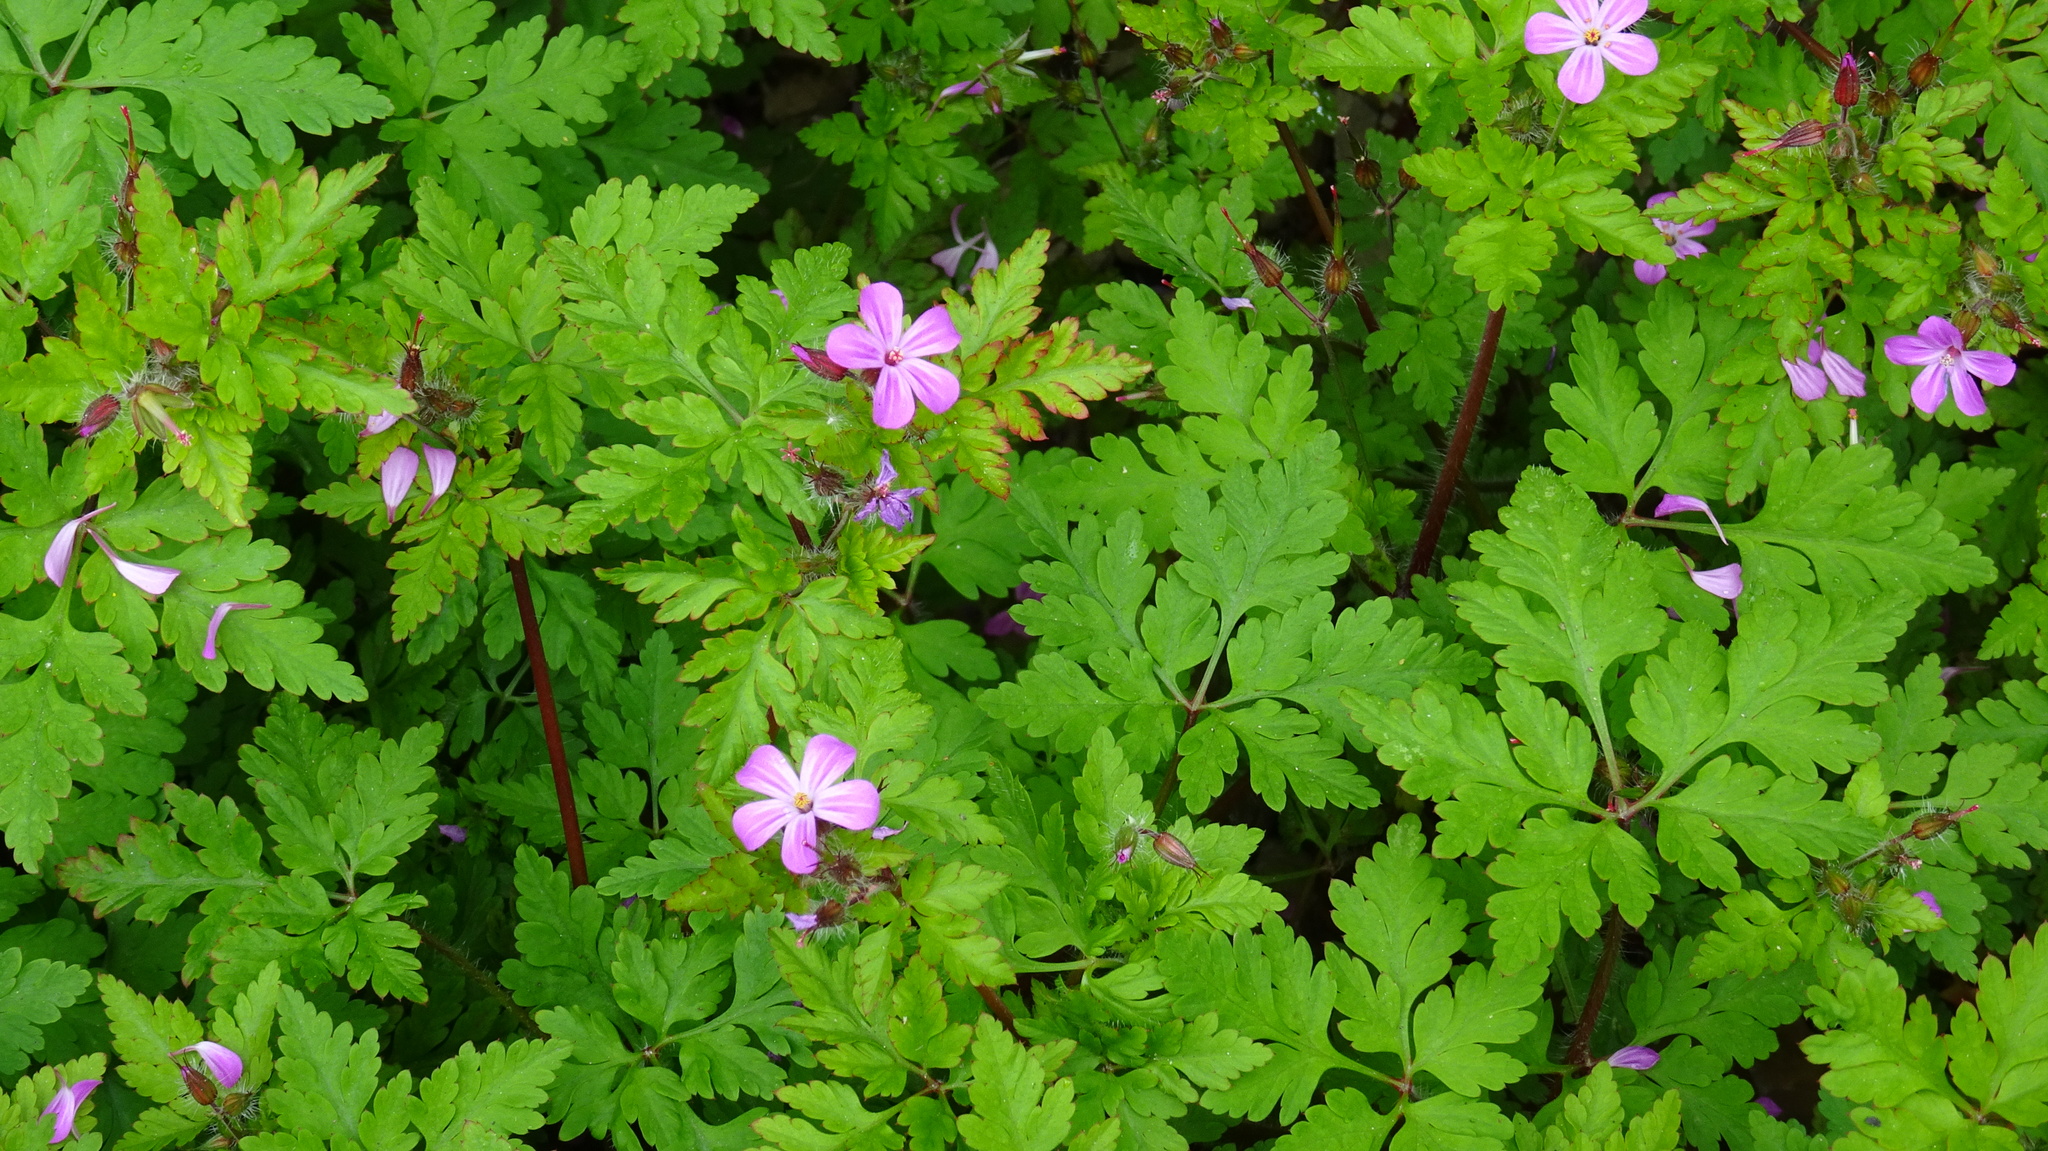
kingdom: Plantae
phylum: Tracheophyta
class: Magnoliopsida
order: Geraniales
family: Geraniaceae
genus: Geranium
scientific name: Geranium robertianum
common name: Herb-robert
